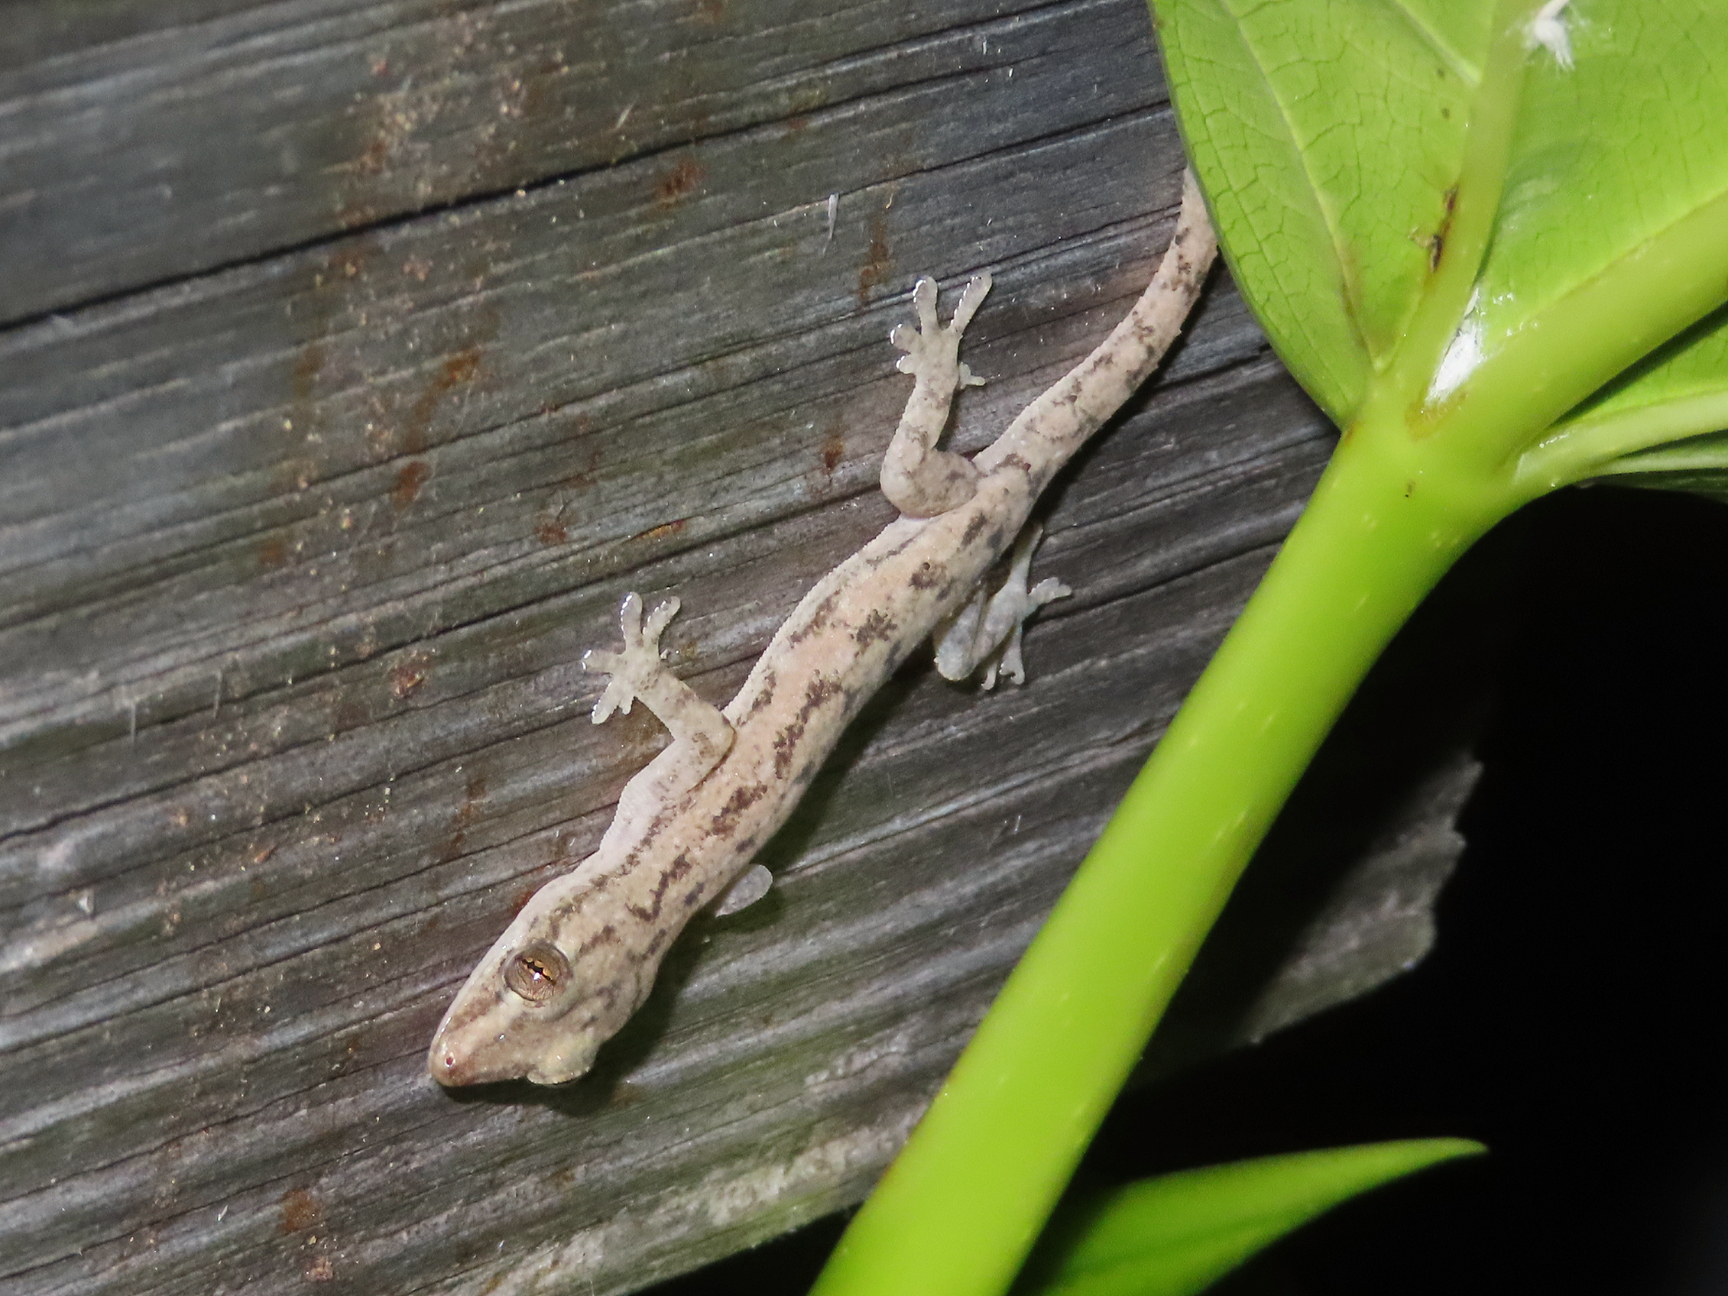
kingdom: Animalia
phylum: Chordata
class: Squamata
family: Gekkonidae
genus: Hemidactylus
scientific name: Hemidactylus frenatus
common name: Common house gecko
